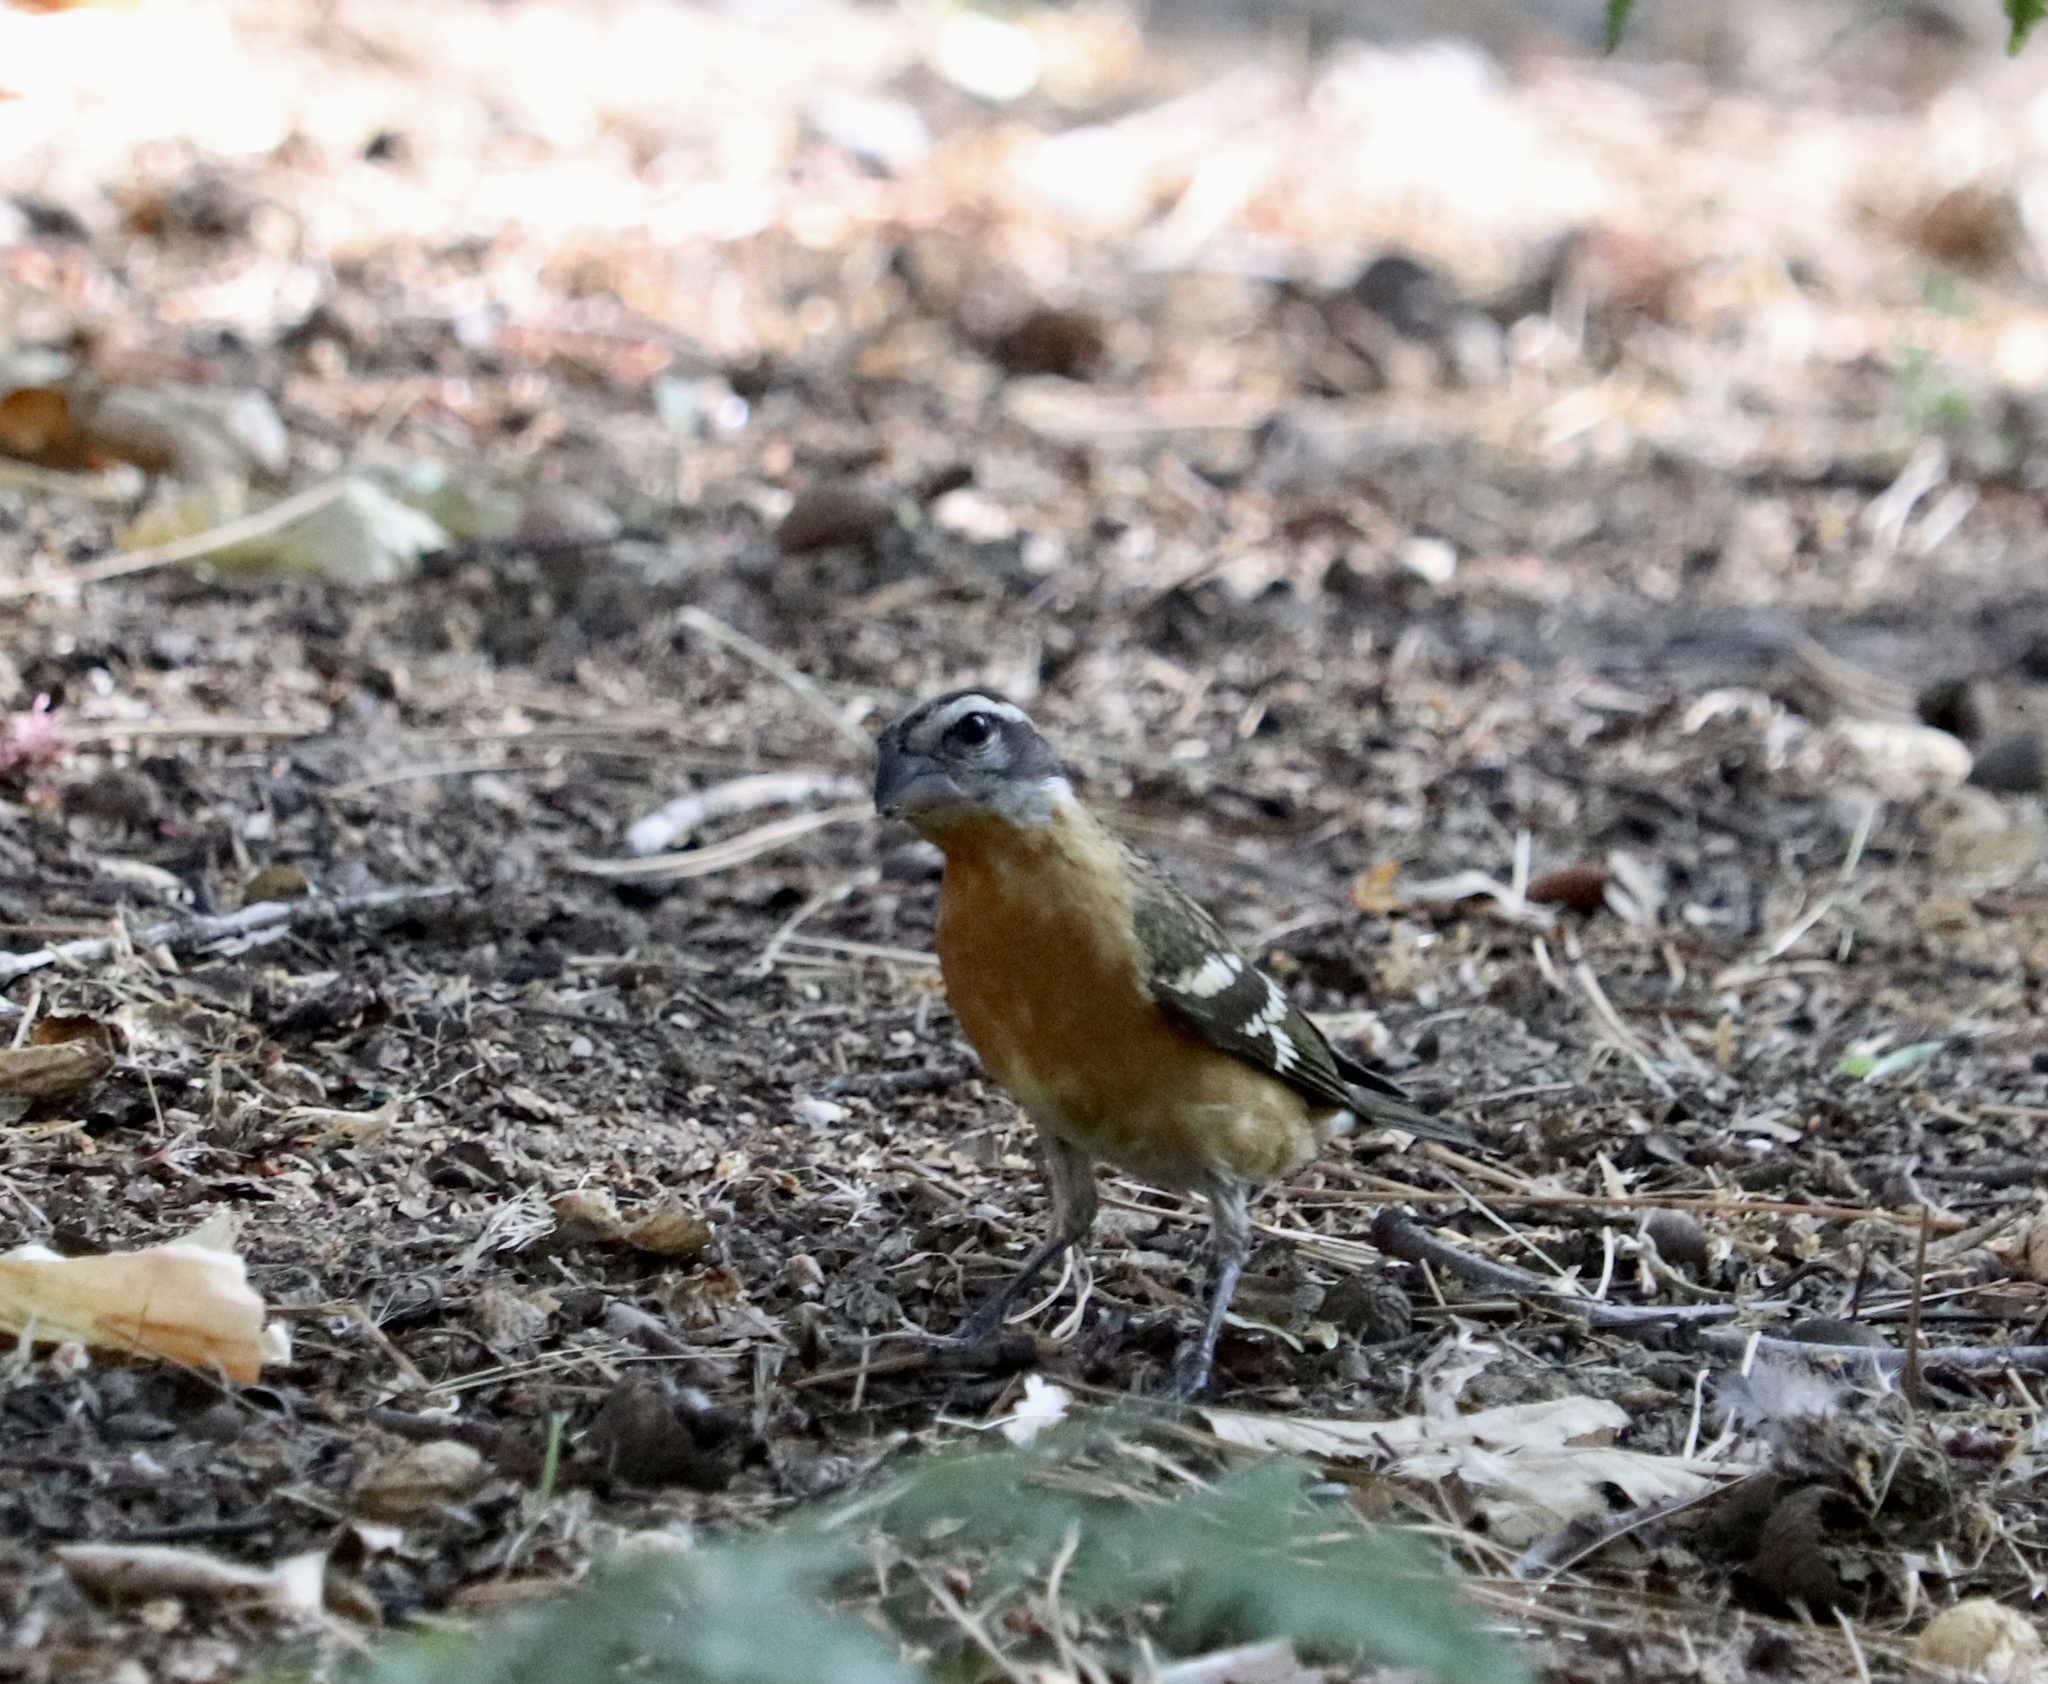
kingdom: Animalia
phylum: Chordata
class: Aves
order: Passeriformes
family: Cardinalidae
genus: Pheucticus
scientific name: Pheucticus melanocephalus
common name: Black-headed grosbeak
